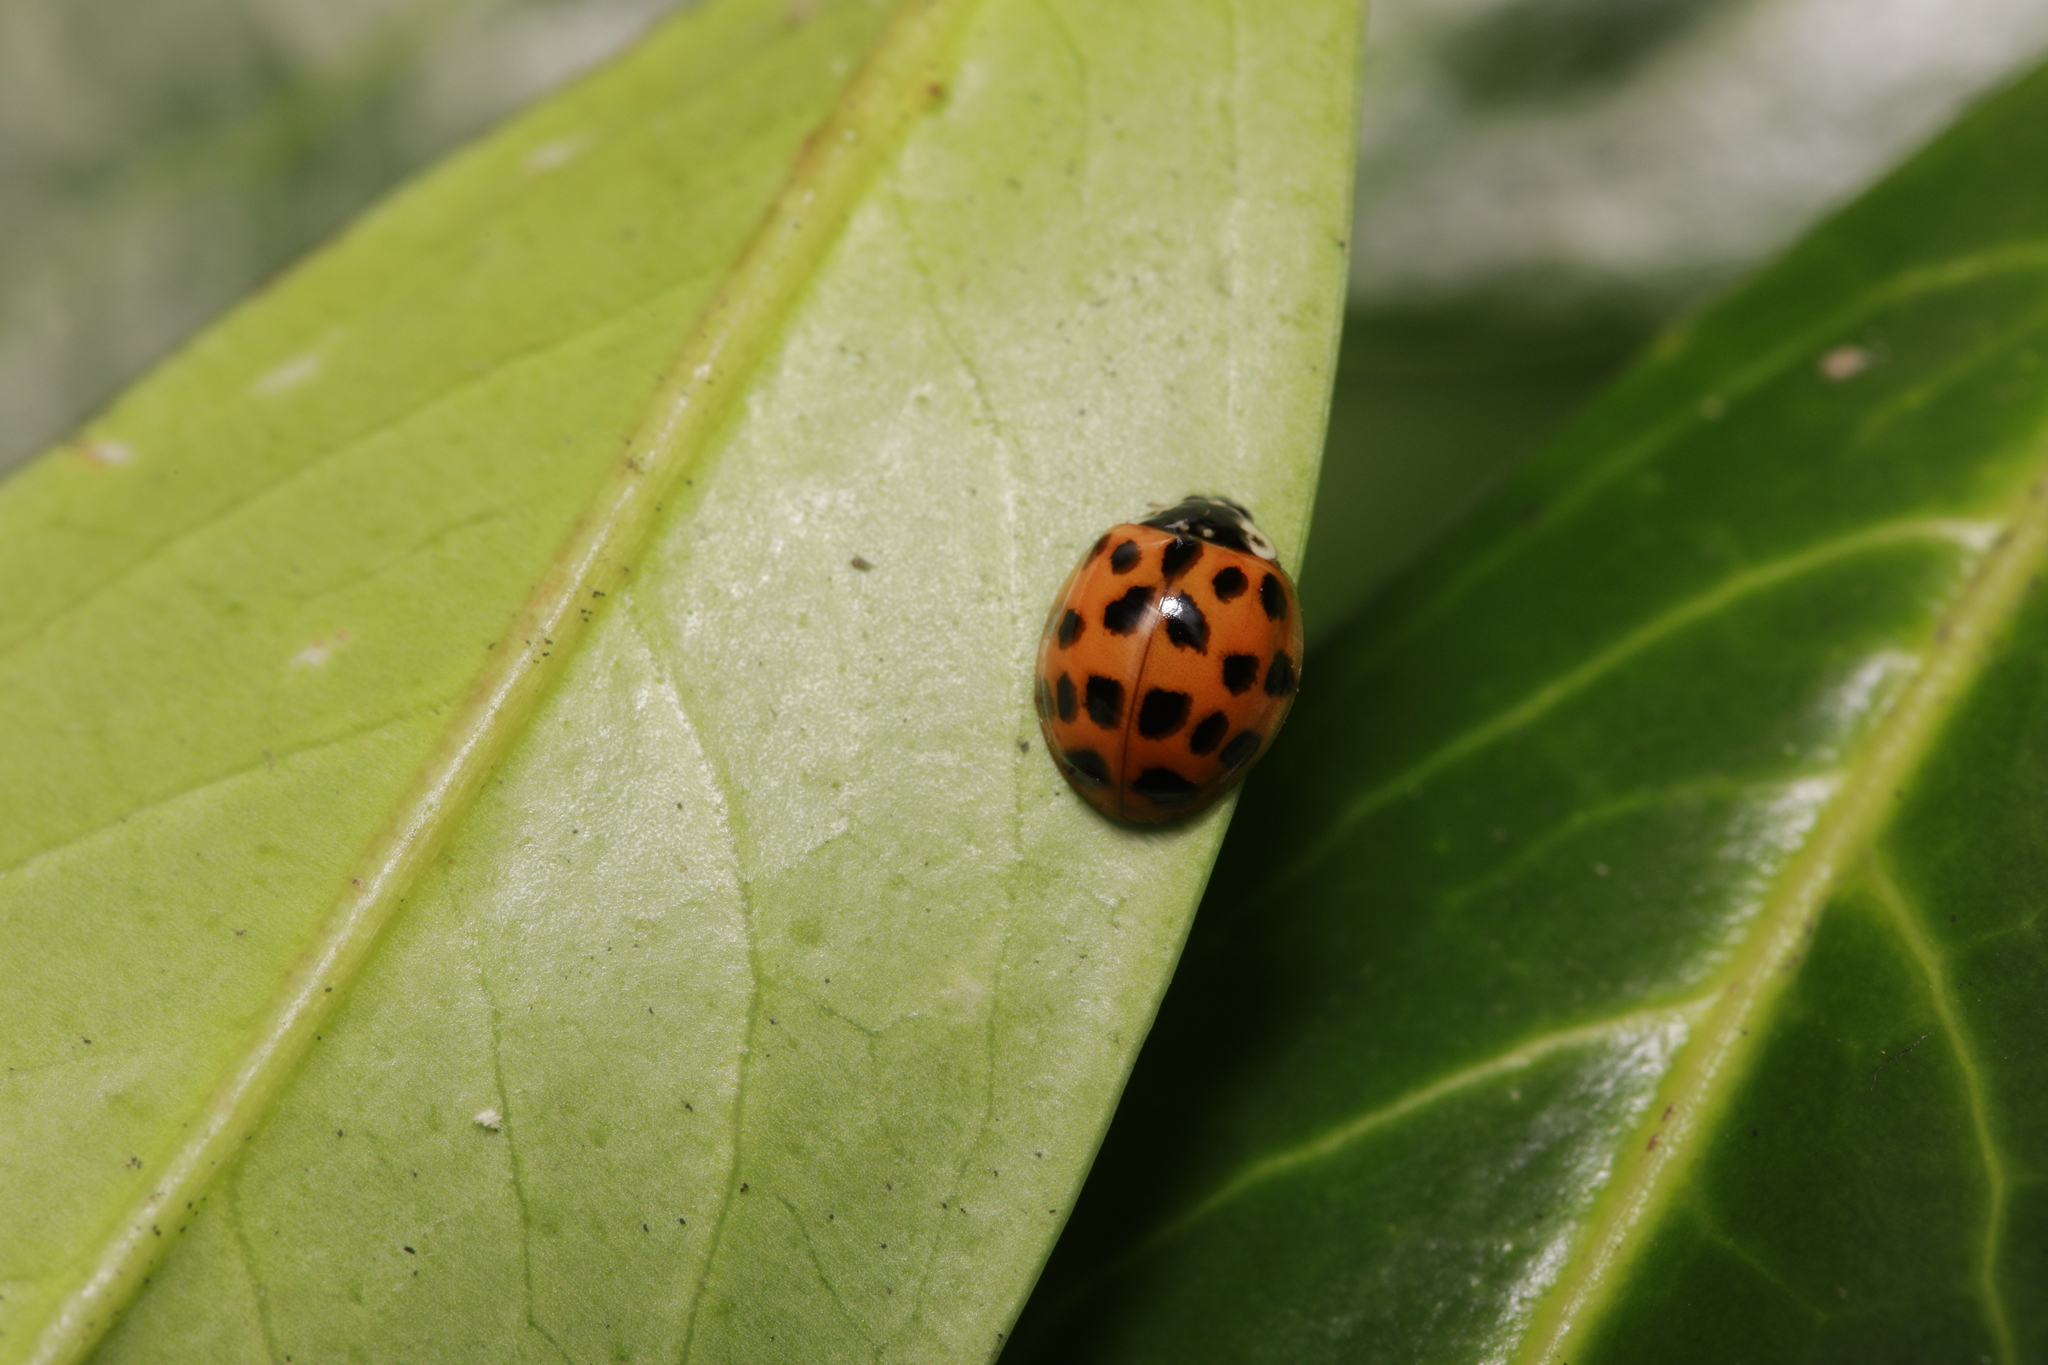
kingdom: Animalia
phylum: Arthropoda
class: Insecta
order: Coleoptera
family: Coccinellidae
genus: Harmonia
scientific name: Harmonia axyridis
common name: Harlequin ladybird
